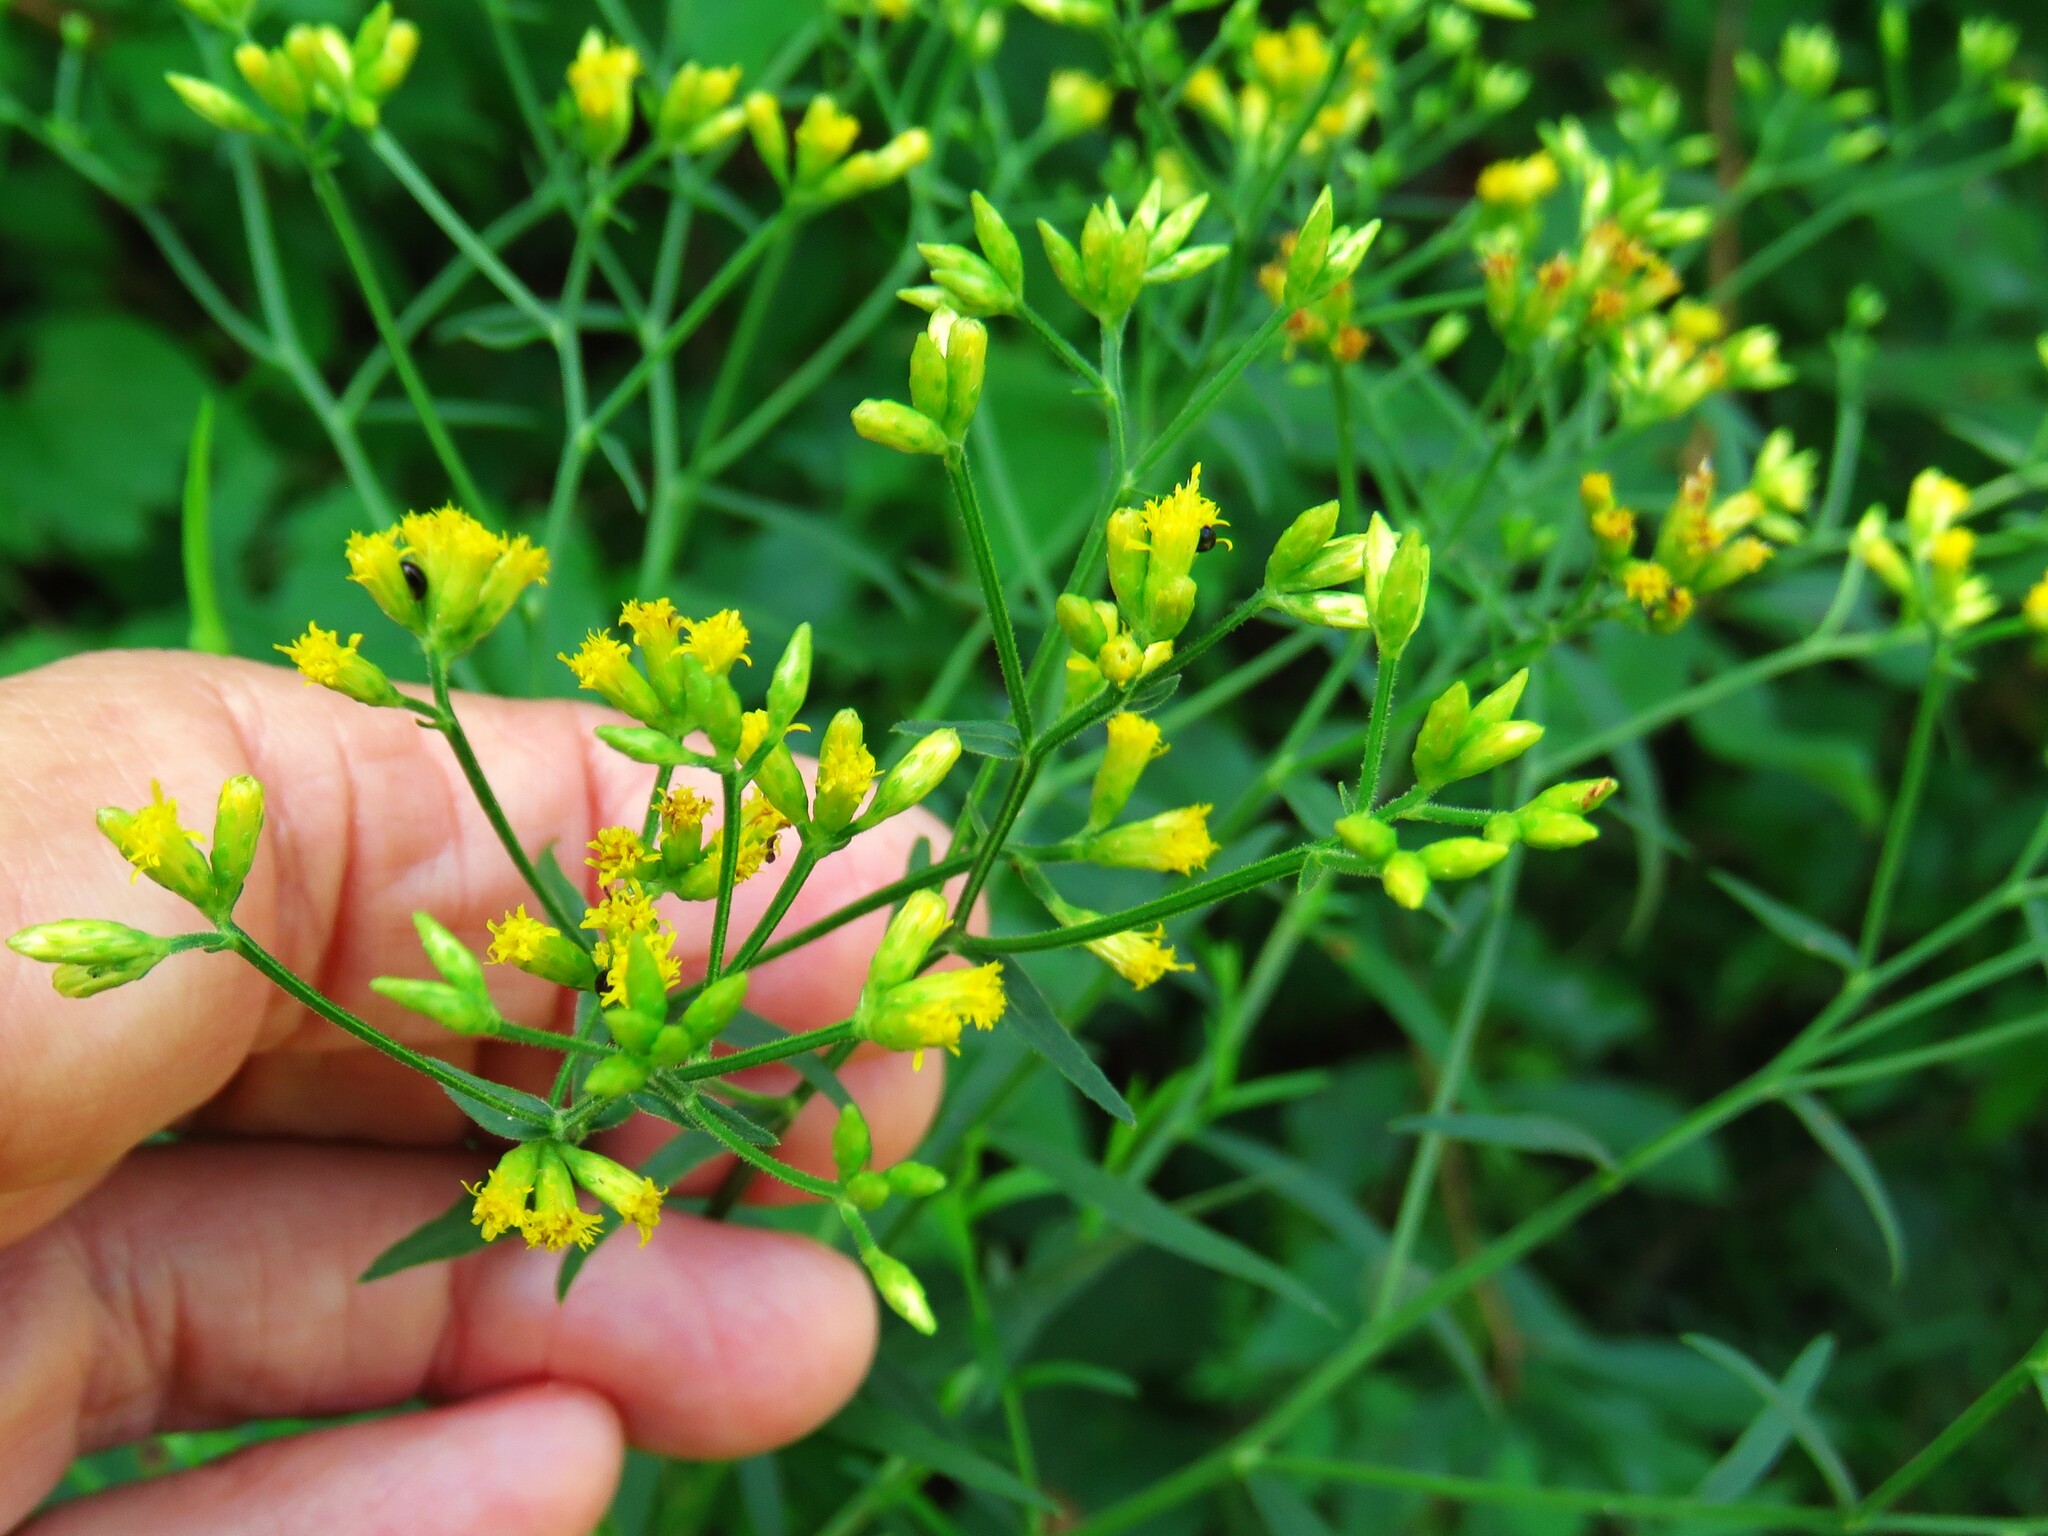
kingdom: Plantae
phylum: Tracheophyta
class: Magnoliopsida
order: Asterales
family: Asteraceae
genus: Euthamia
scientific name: Euthamia graminifolia
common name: Common goldentop
